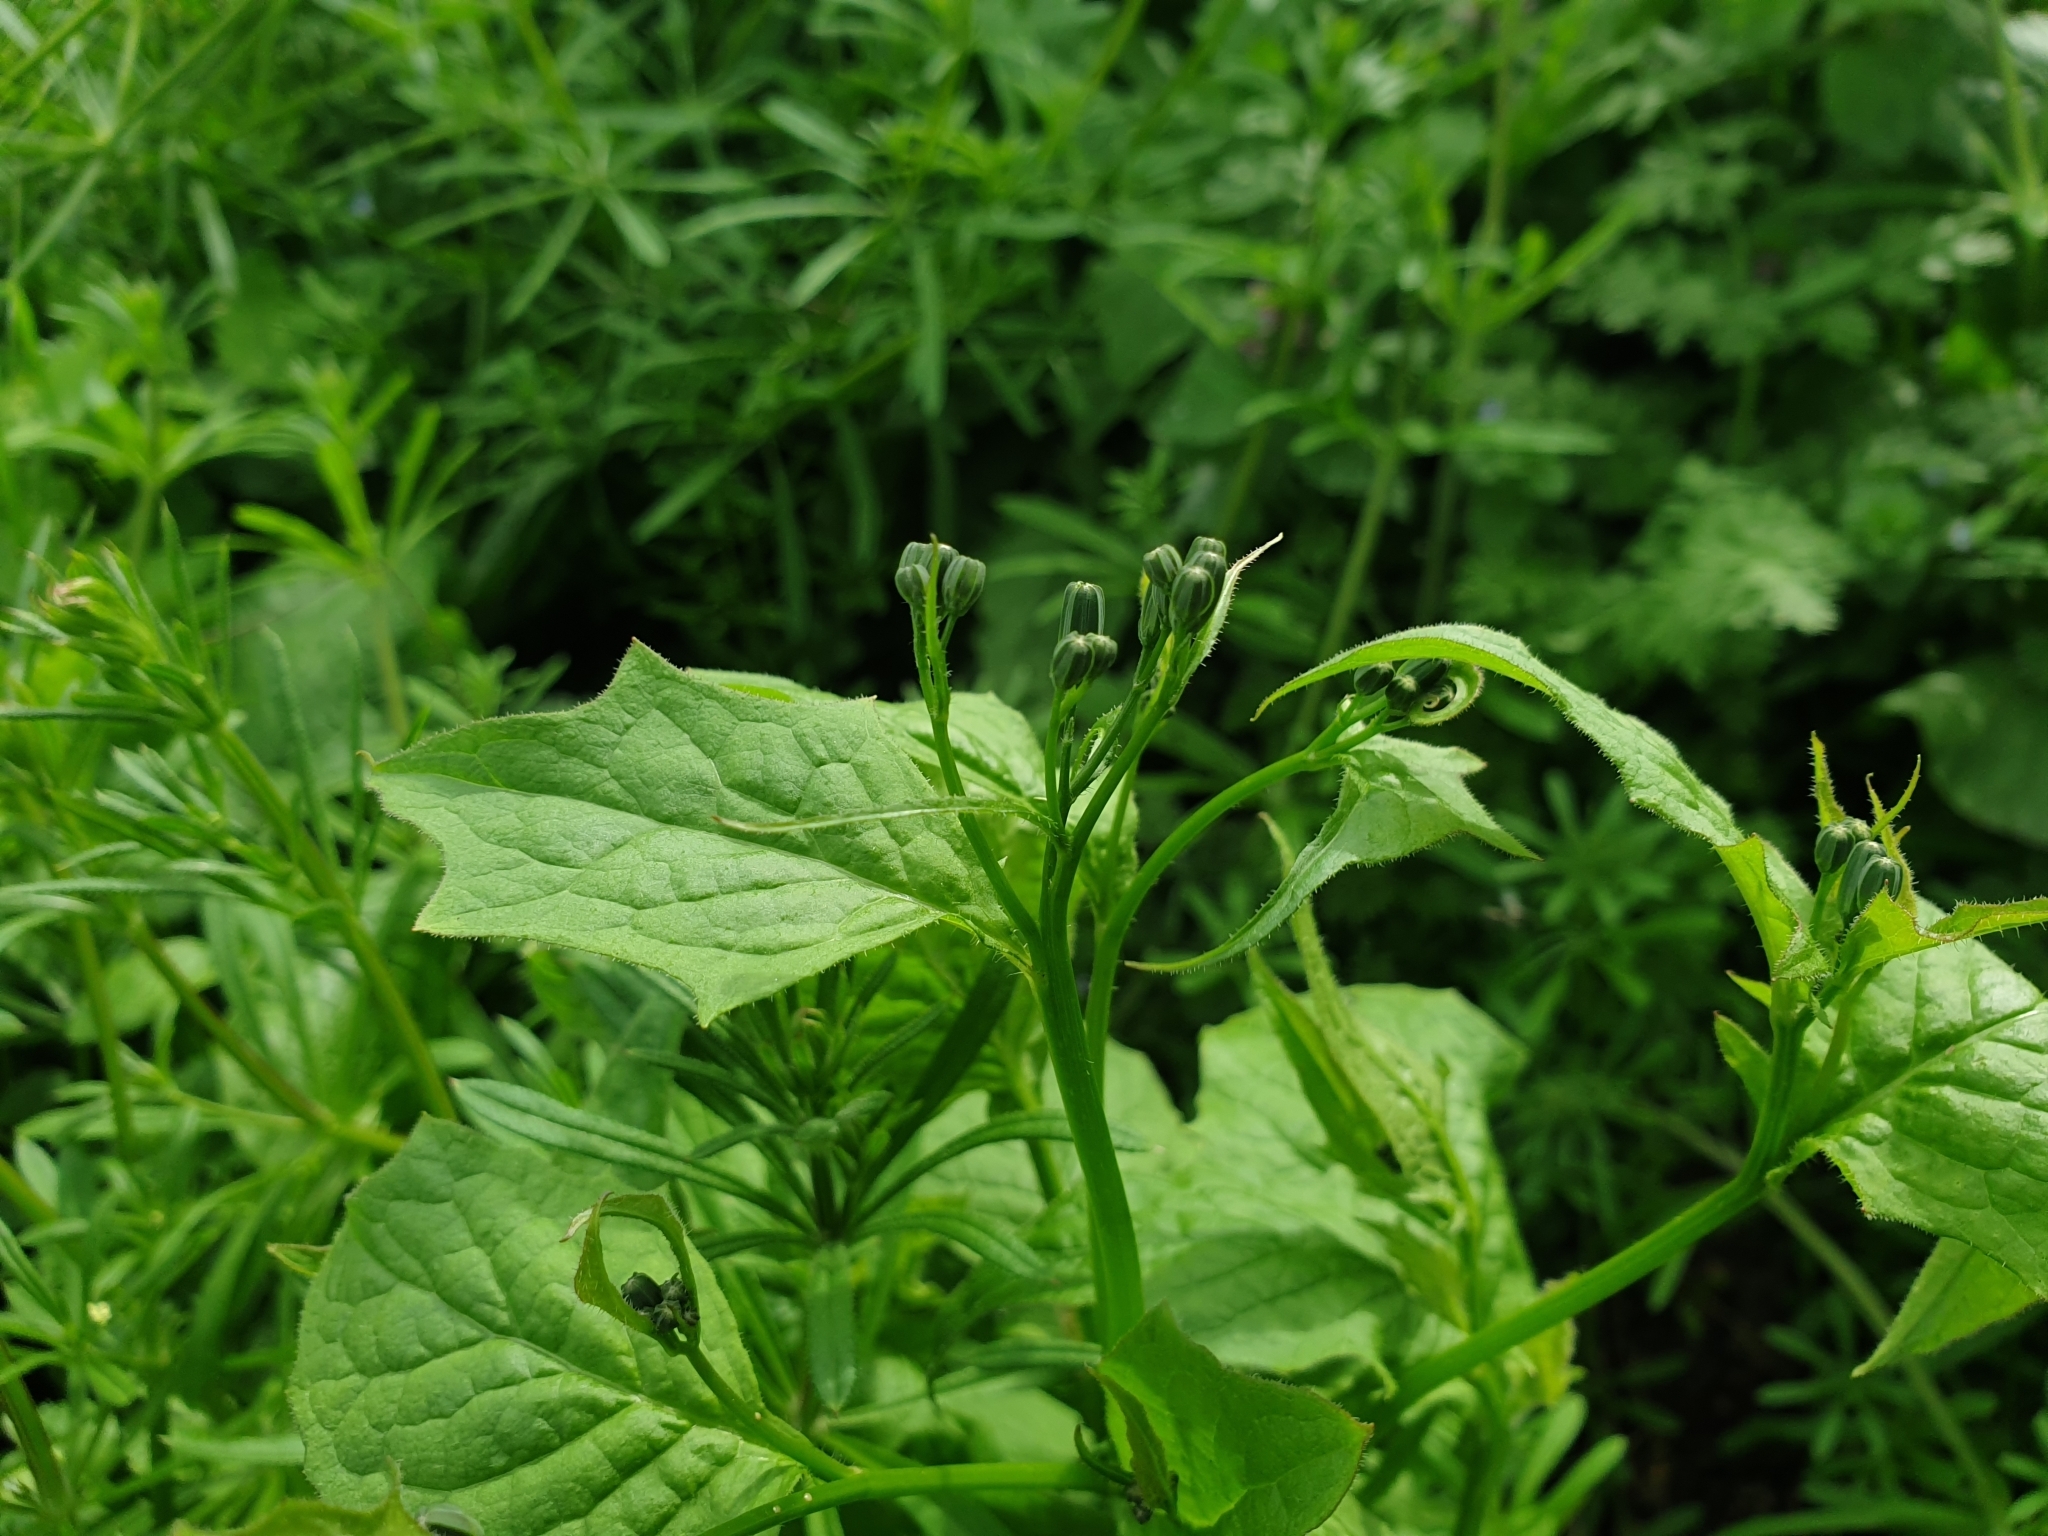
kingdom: Plantae
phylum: Tracheophyta
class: Magnoliopsida
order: Asterales
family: Asteraceae
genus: Lapsana
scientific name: Lapsana communis
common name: Nipplewort
